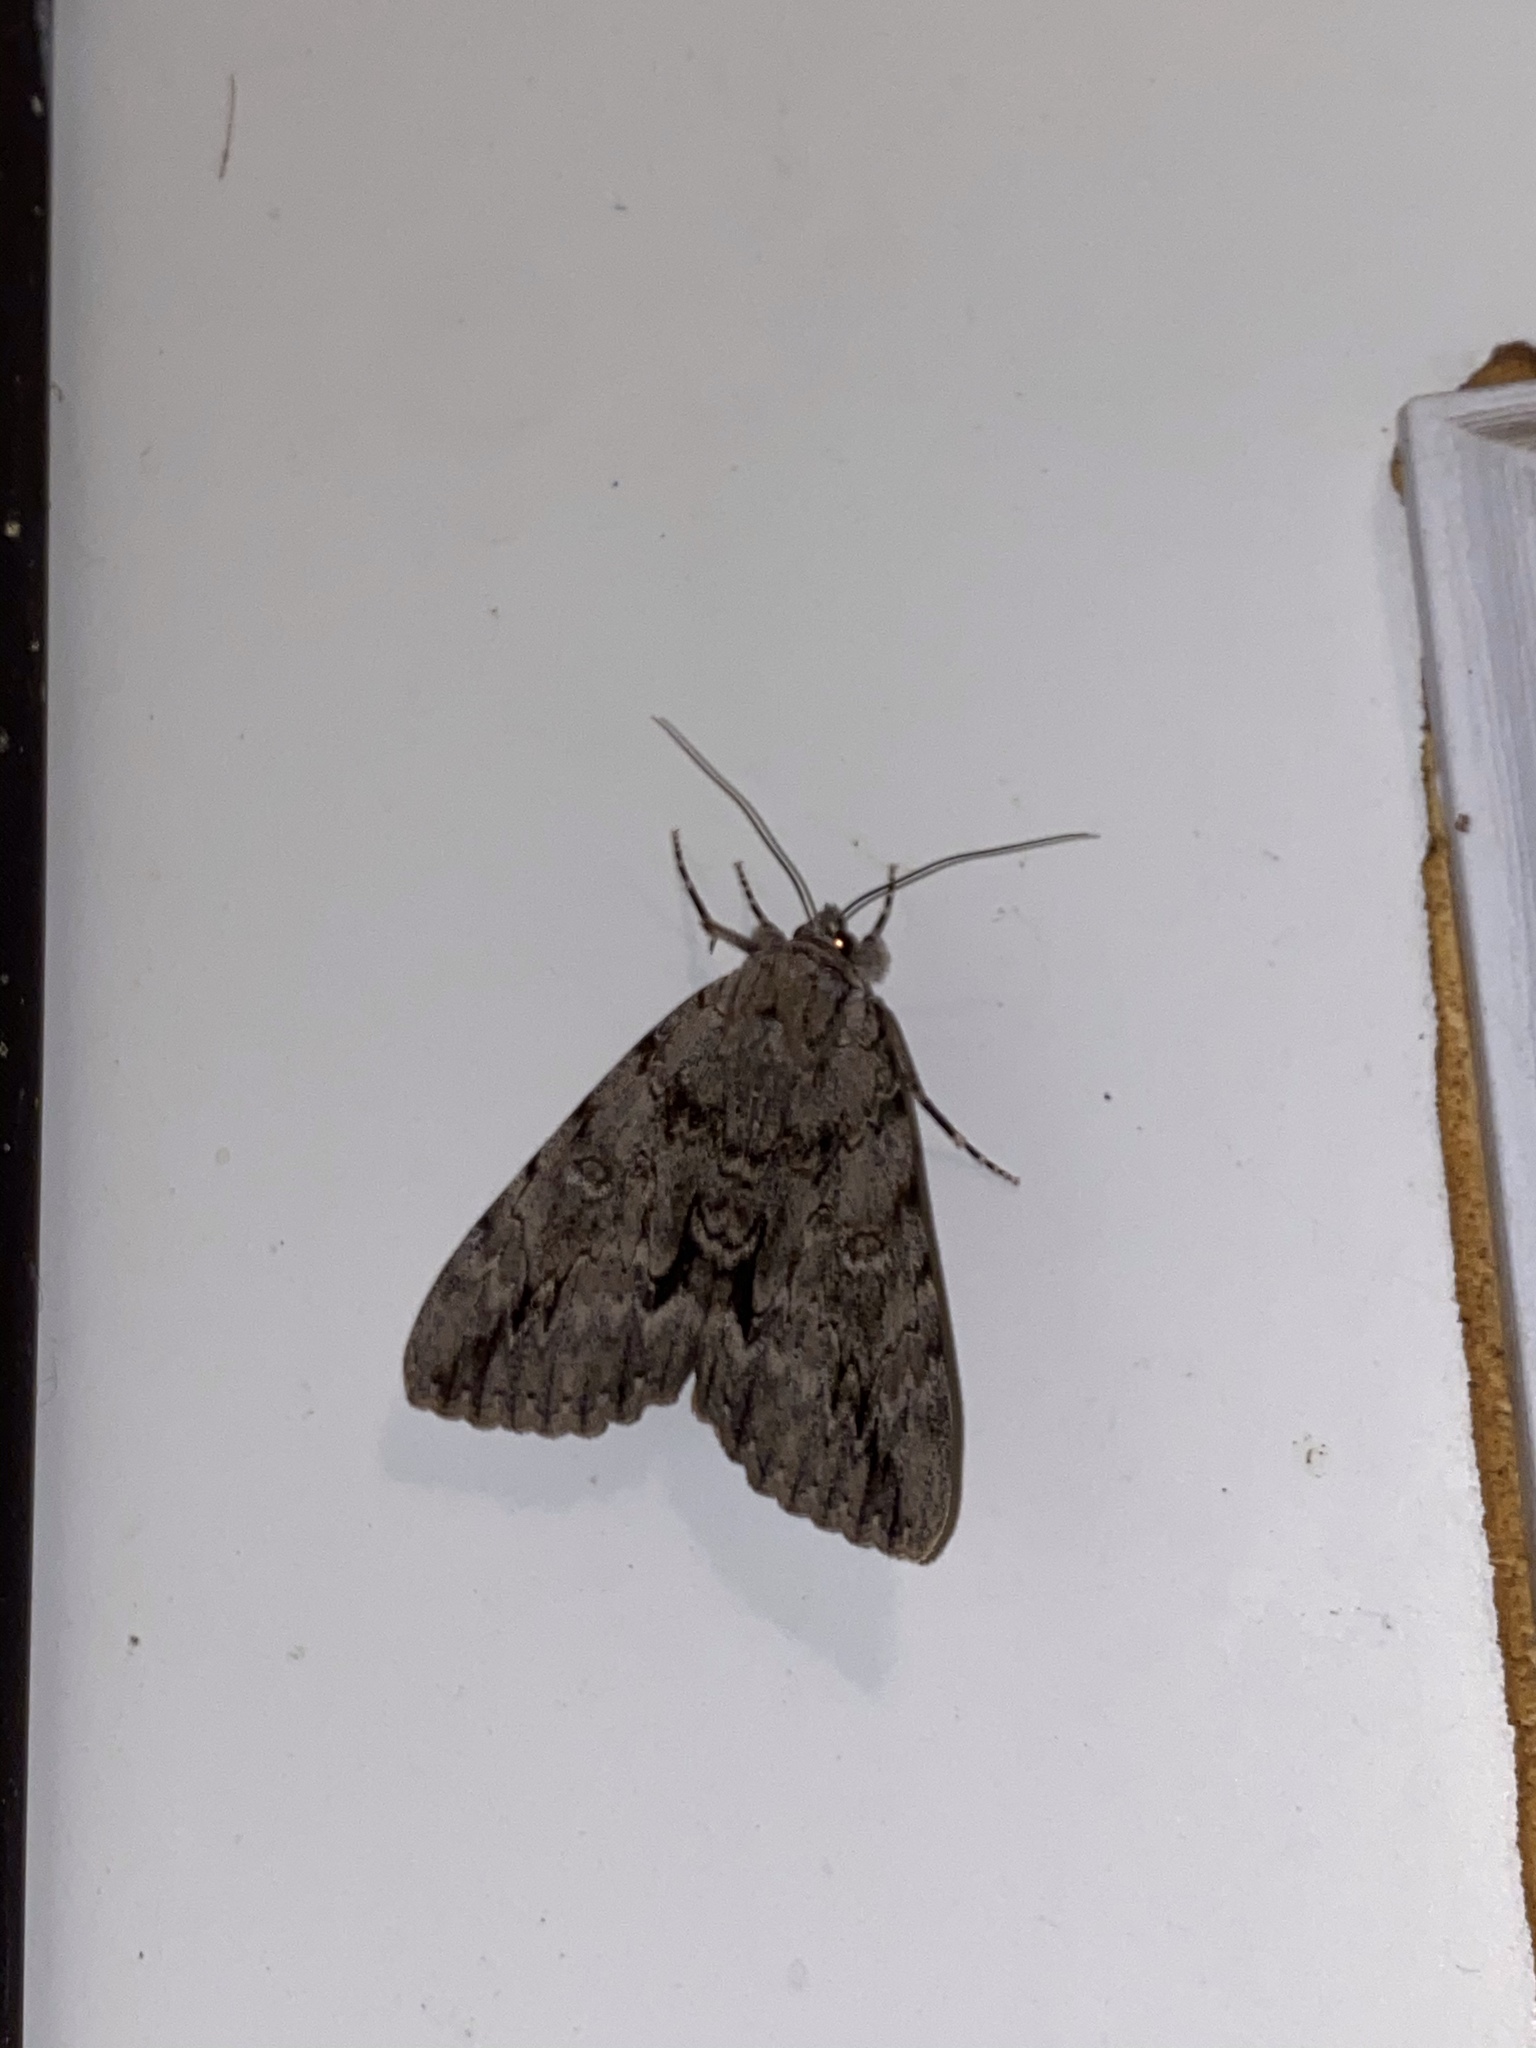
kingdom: Animalia
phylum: Arthropoda
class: Insecta
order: Lepidoptera
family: Erebidae
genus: Catocala
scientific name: Catocala habilis
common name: Habilis underwing
